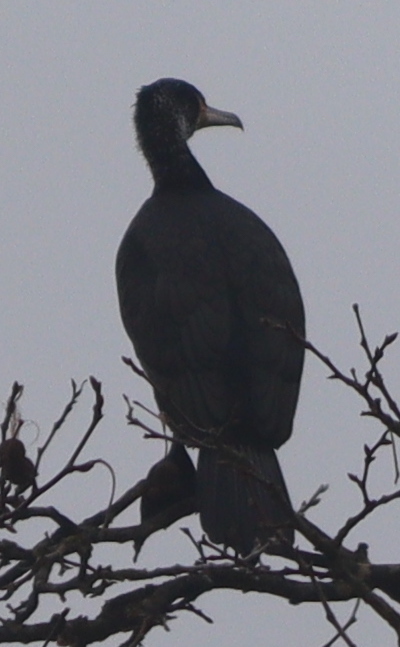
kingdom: Animalia
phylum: Chordata
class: Aves
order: Suliformes
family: Phalacrocoracidae
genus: Phalacrocorax
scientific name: Phalacrocorax carbo
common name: Great cormorant
